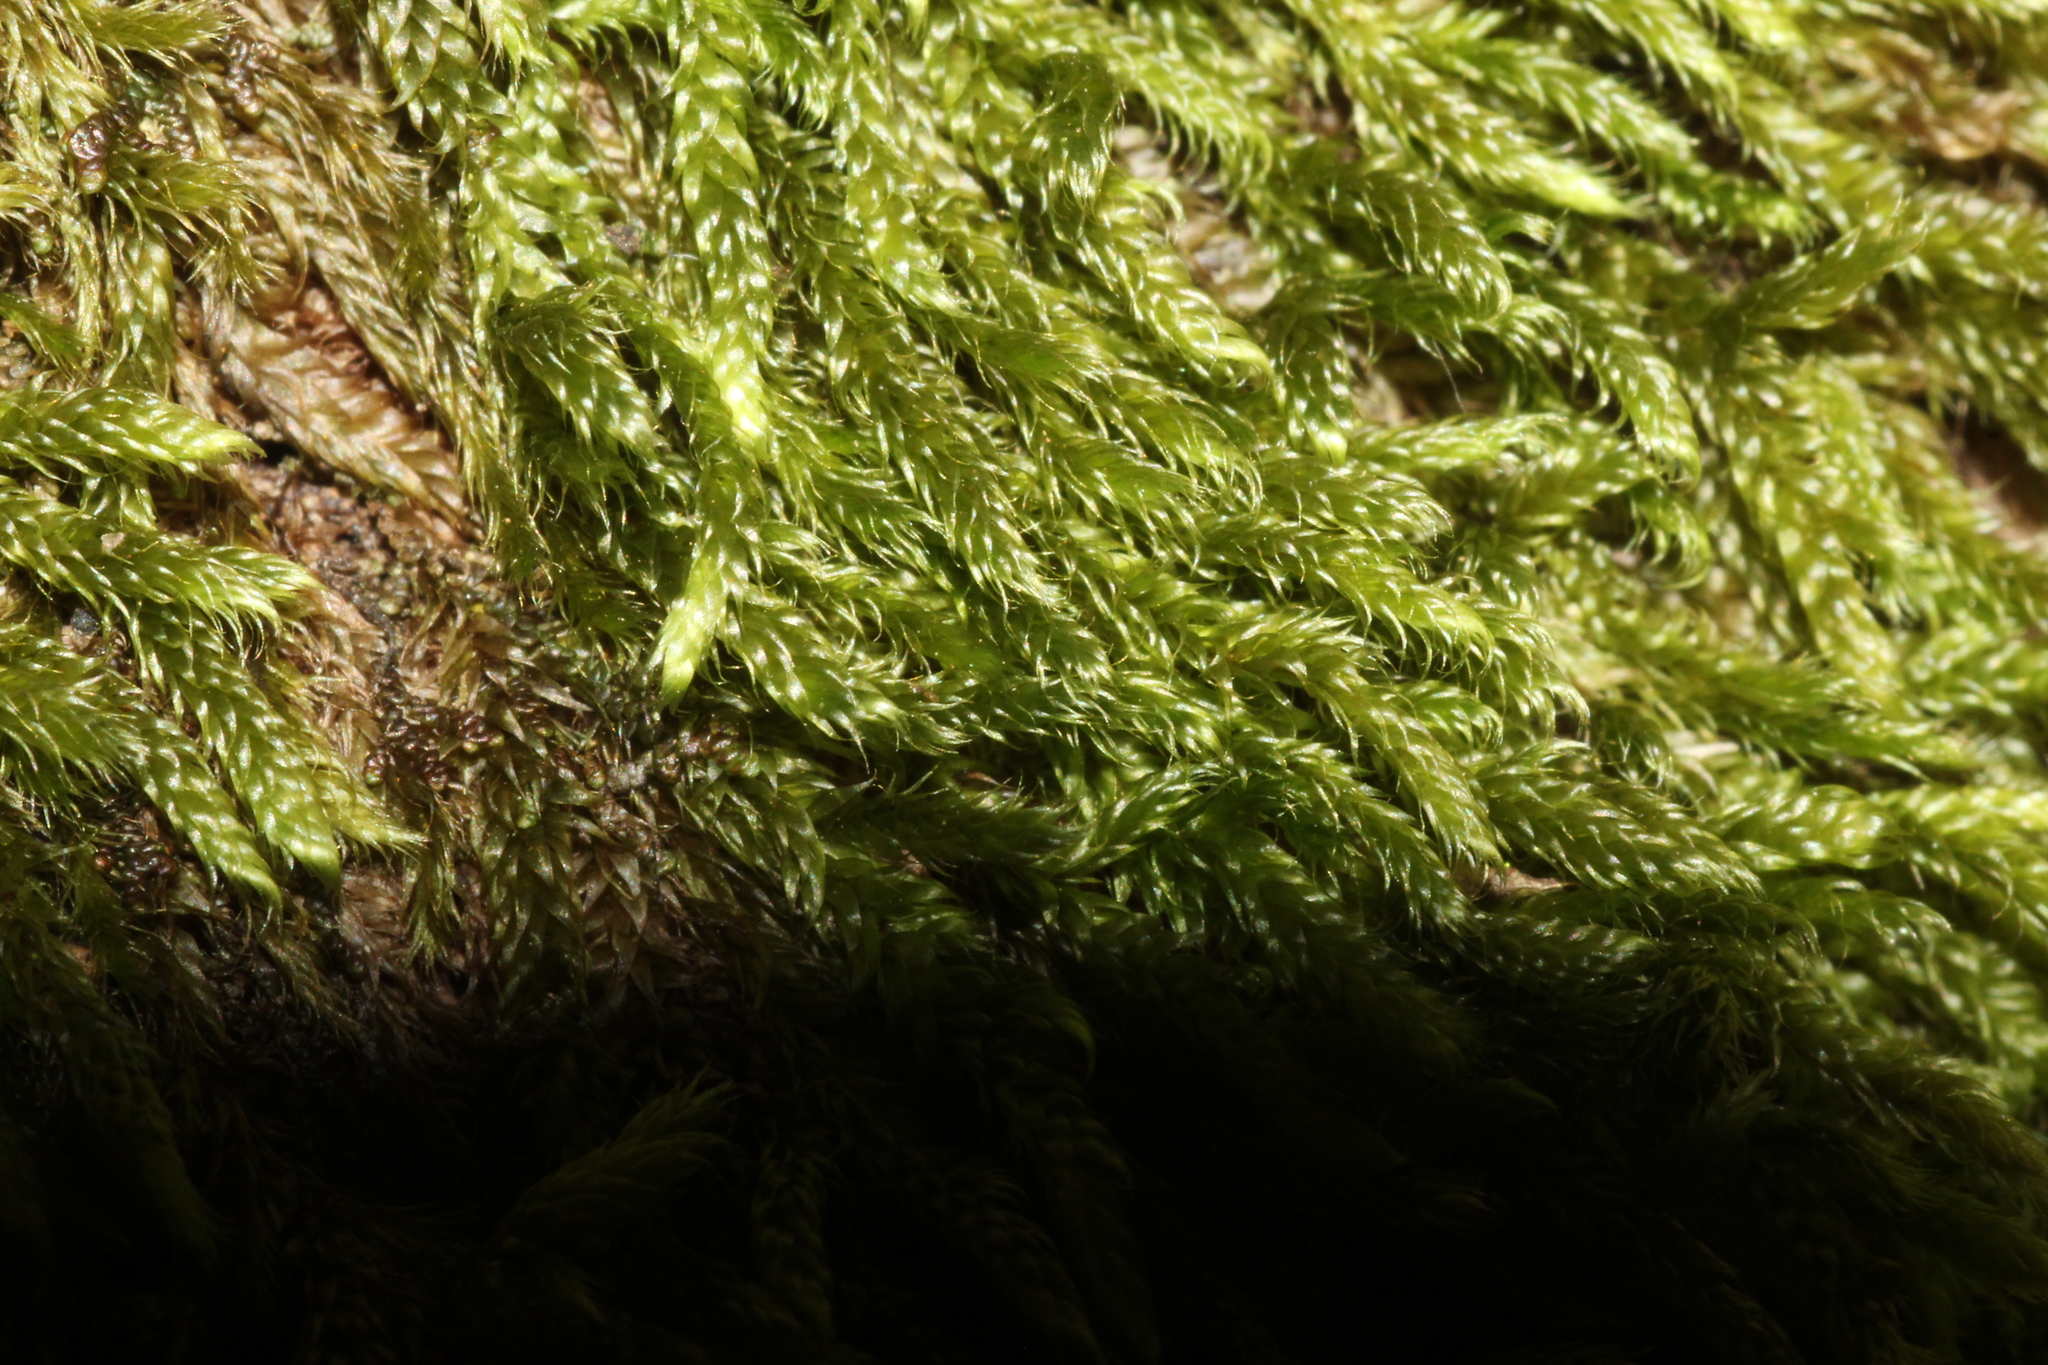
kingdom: Plantae
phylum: Bryophyta
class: Bryopsida
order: Hypnales
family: Hypnaceae
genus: Hypnum
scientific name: Hypnum cupressiforme
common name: Cypress-leaved plait-moss
